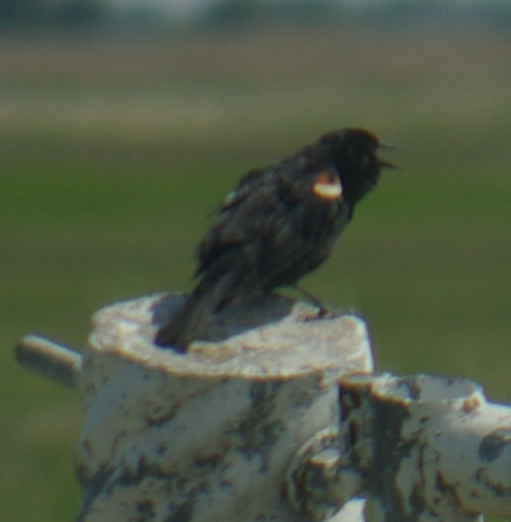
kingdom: Animalia
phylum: Chordata
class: Aves
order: Passeriformes
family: Icteridae
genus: Agelaius
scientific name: Agelaius phoeniceus
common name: Red-winged blackbird
